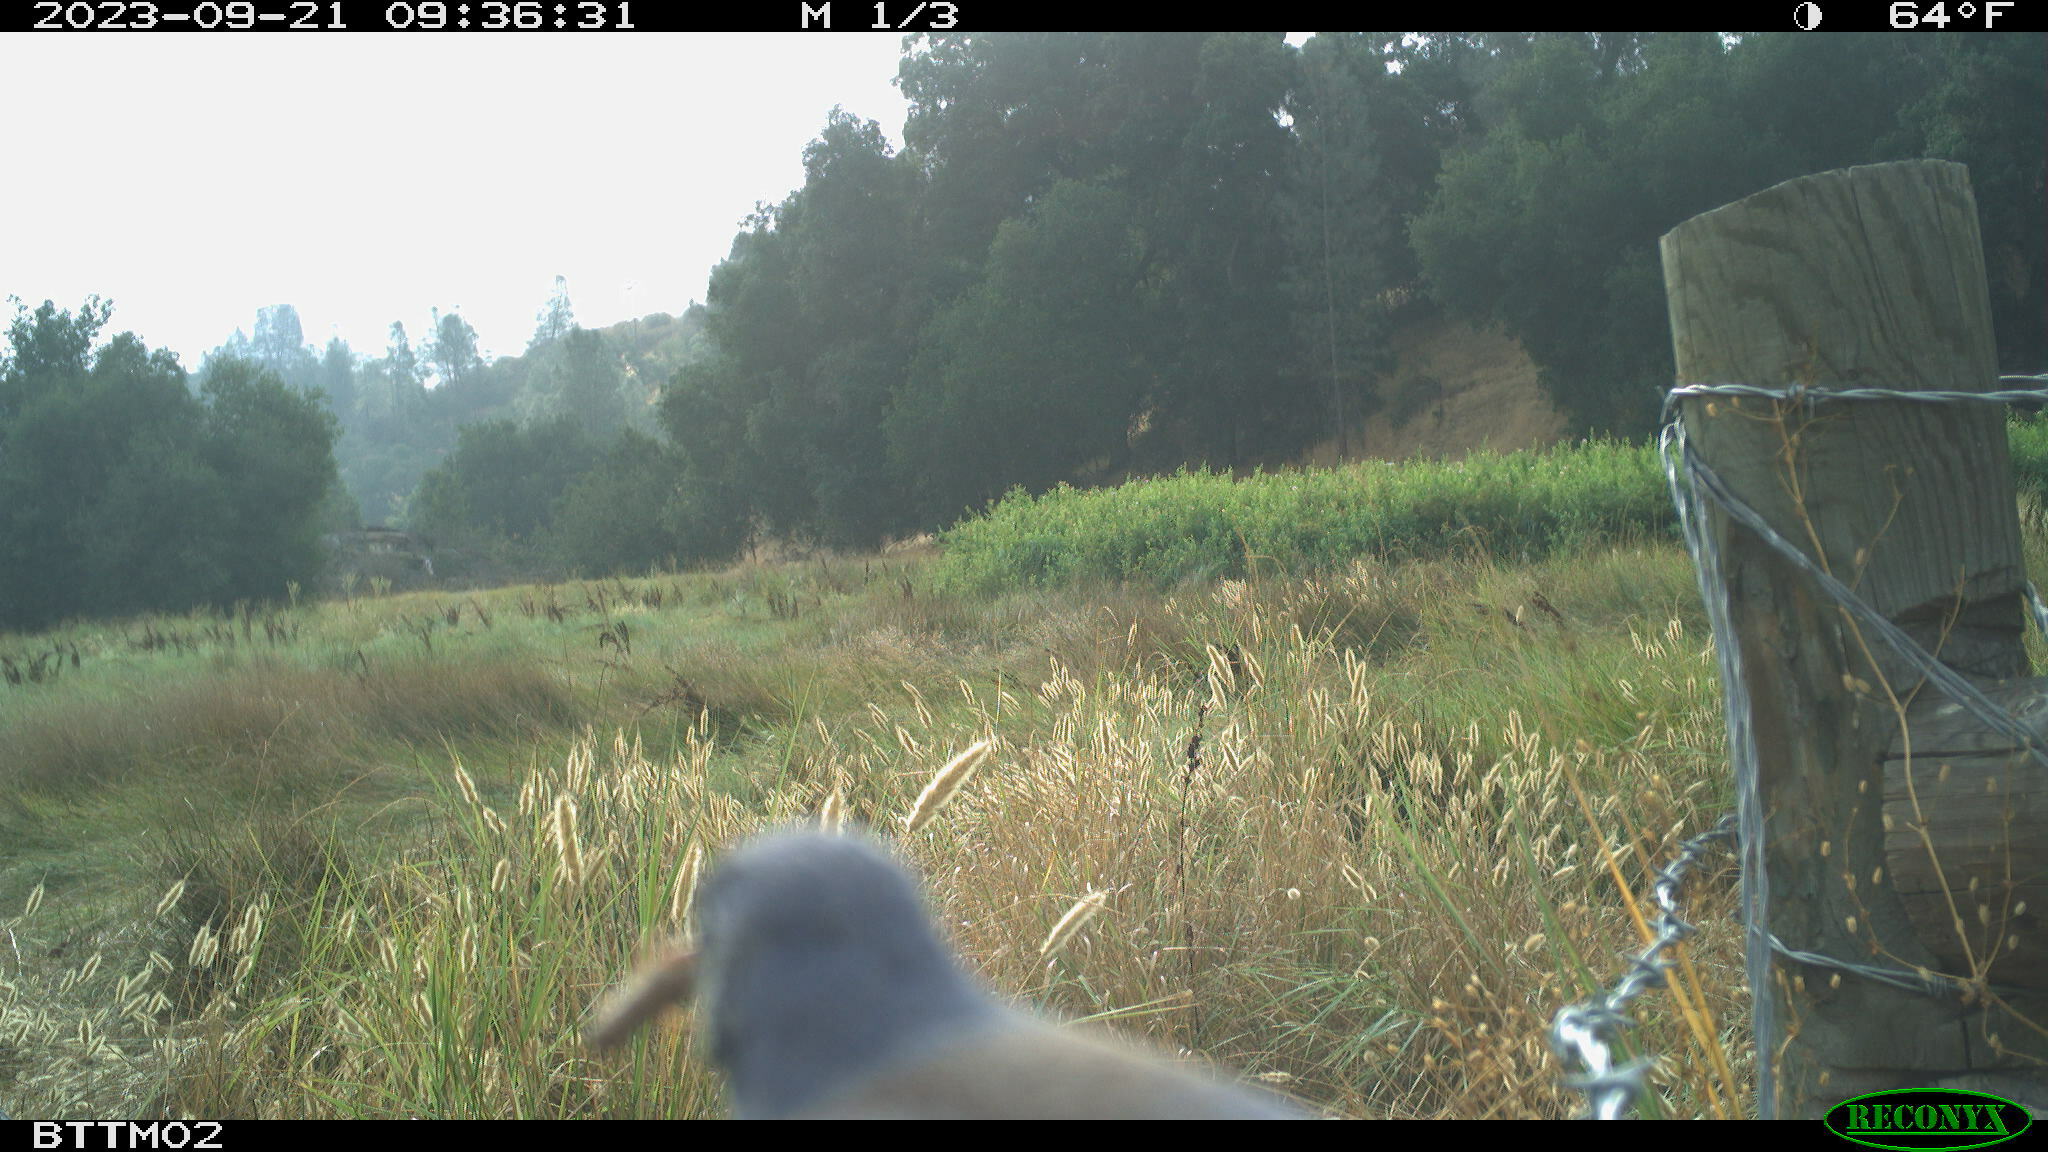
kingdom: Animalia
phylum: Chordata
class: Aves
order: Passeriformes
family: Turdidae
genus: Sialia
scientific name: Sialia mexicana
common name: Western bluebird
